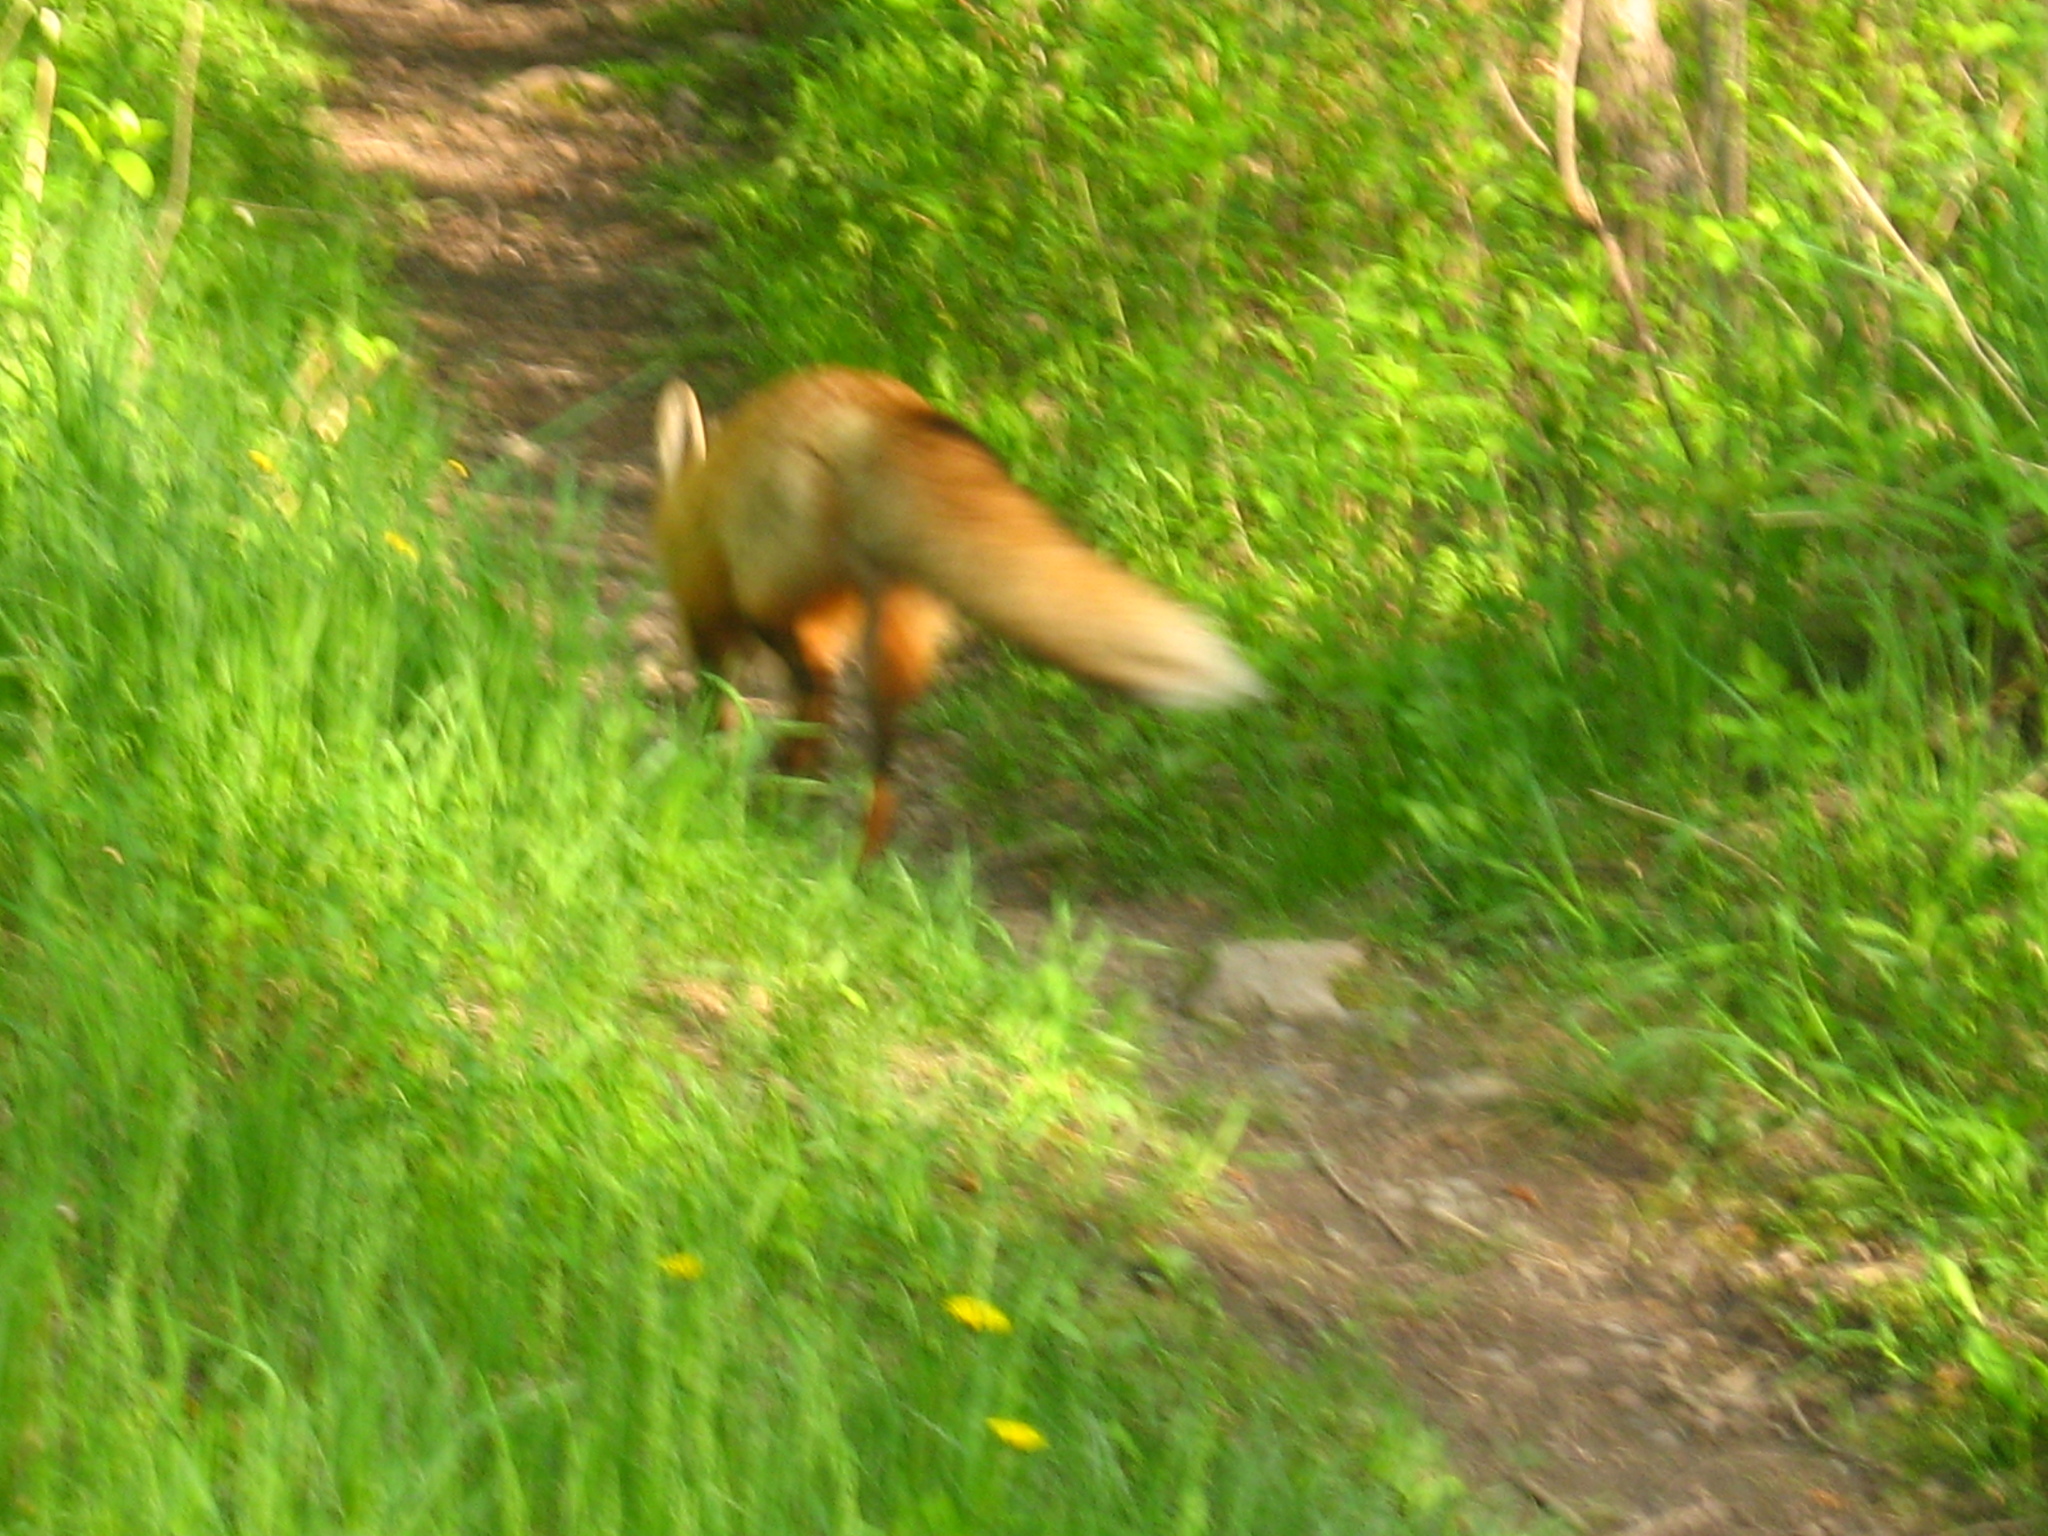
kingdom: Animalia
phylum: Chordata
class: Mammalia
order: Carnivora
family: Canidae
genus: Vulpes
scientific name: Vulpes vulpes
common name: Red fox
